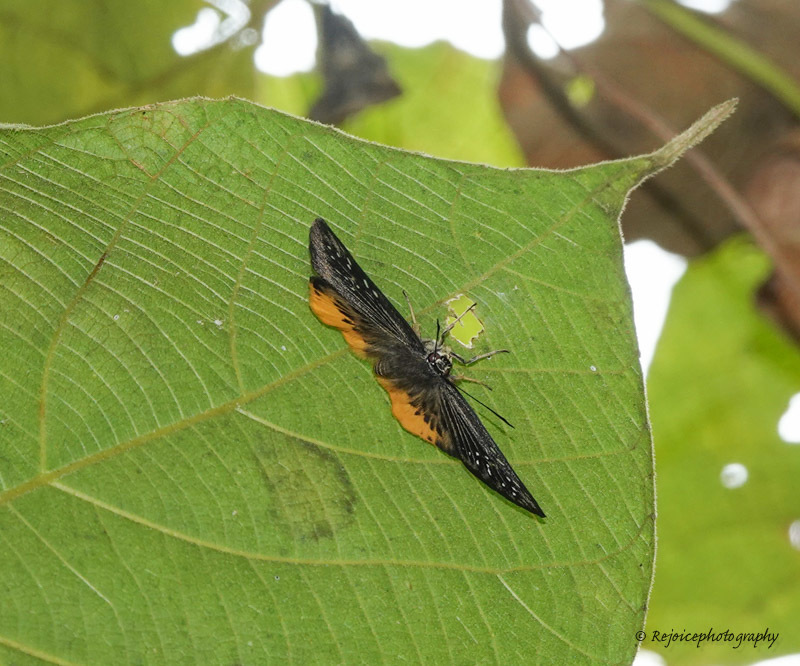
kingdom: Animalia
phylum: Arthropoda
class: Insecta
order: Lepidoptera
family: Hesperiidae
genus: Mooreana
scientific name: Mooreana trichoneura
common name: Yellow flat
